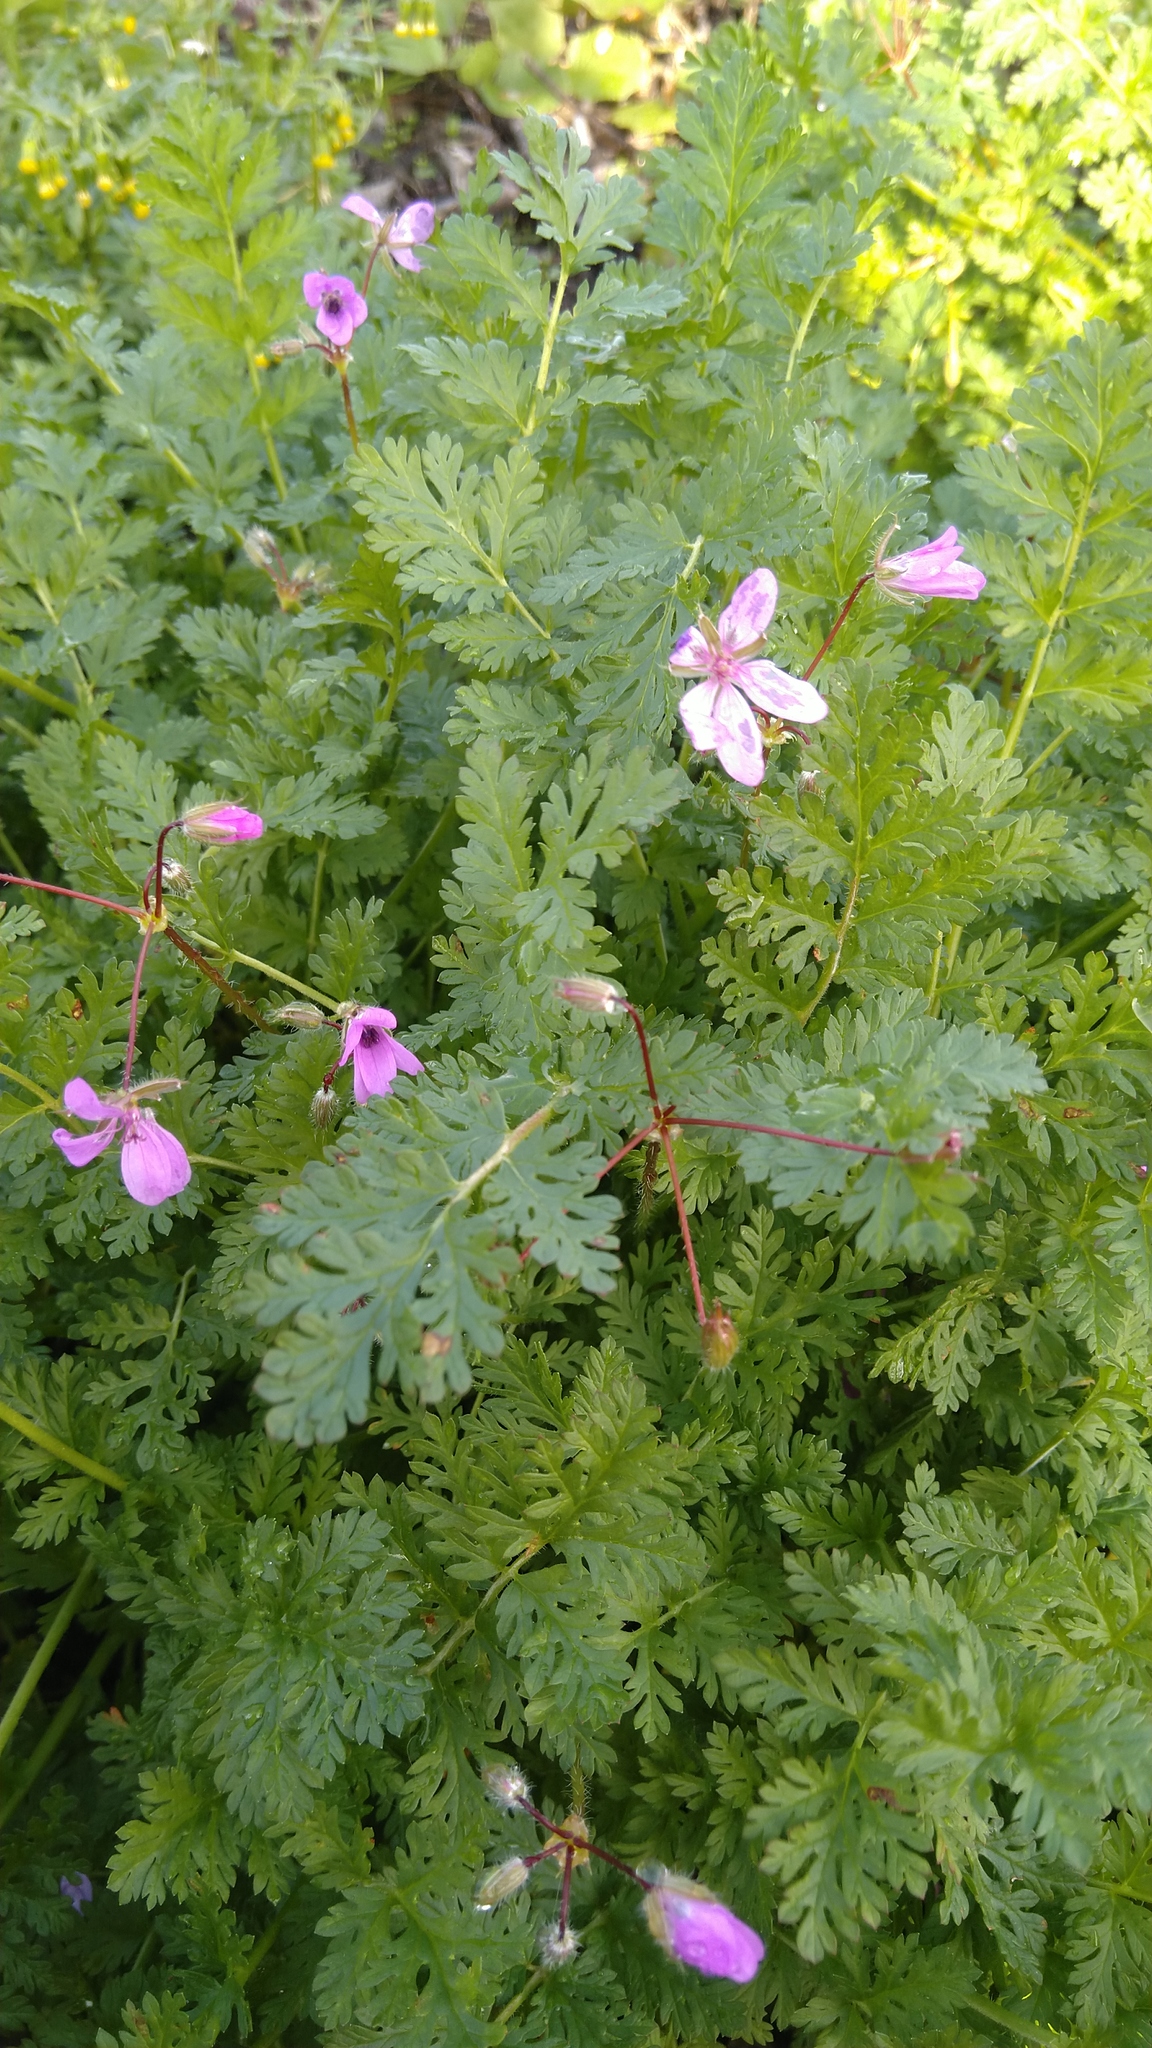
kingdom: Plantae
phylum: Tracheophyta
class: Magnoliopsida
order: Geraniales
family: Geraniaceae
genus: Erodium
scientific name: Erodium cicutarium
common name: Common stork's-bill
